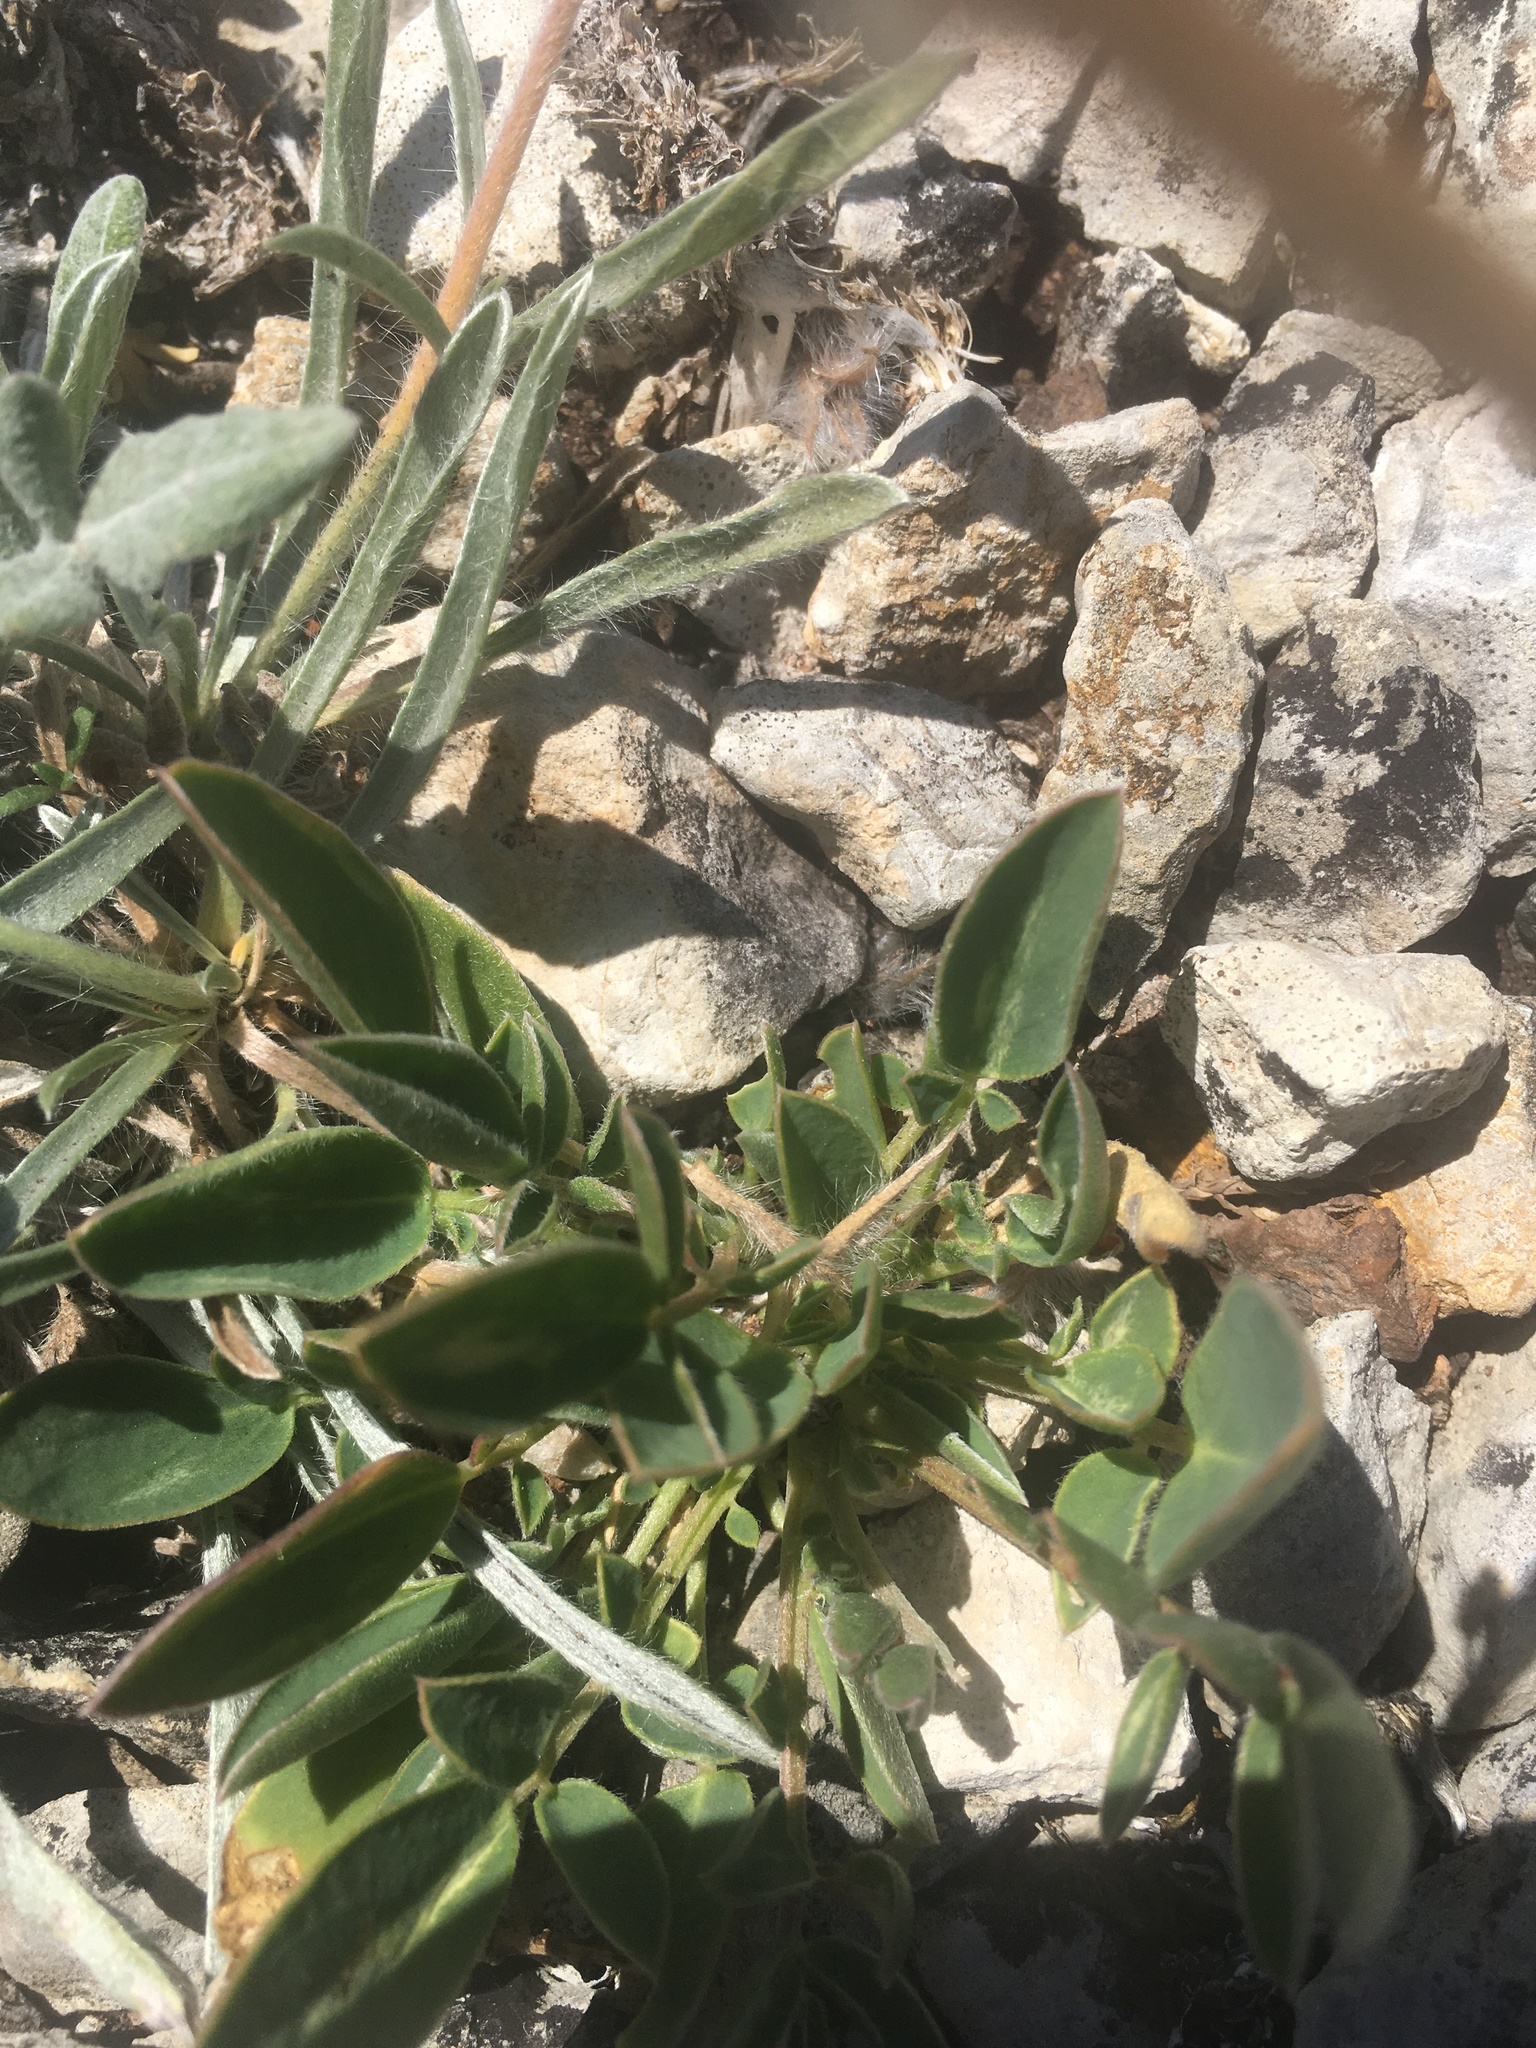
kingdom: Plantae
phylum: Tracheophyta
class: Magnoliopsida
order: Fabales
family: Fabaceae
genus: Onobrychis
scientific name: Onobrychis pallasii
